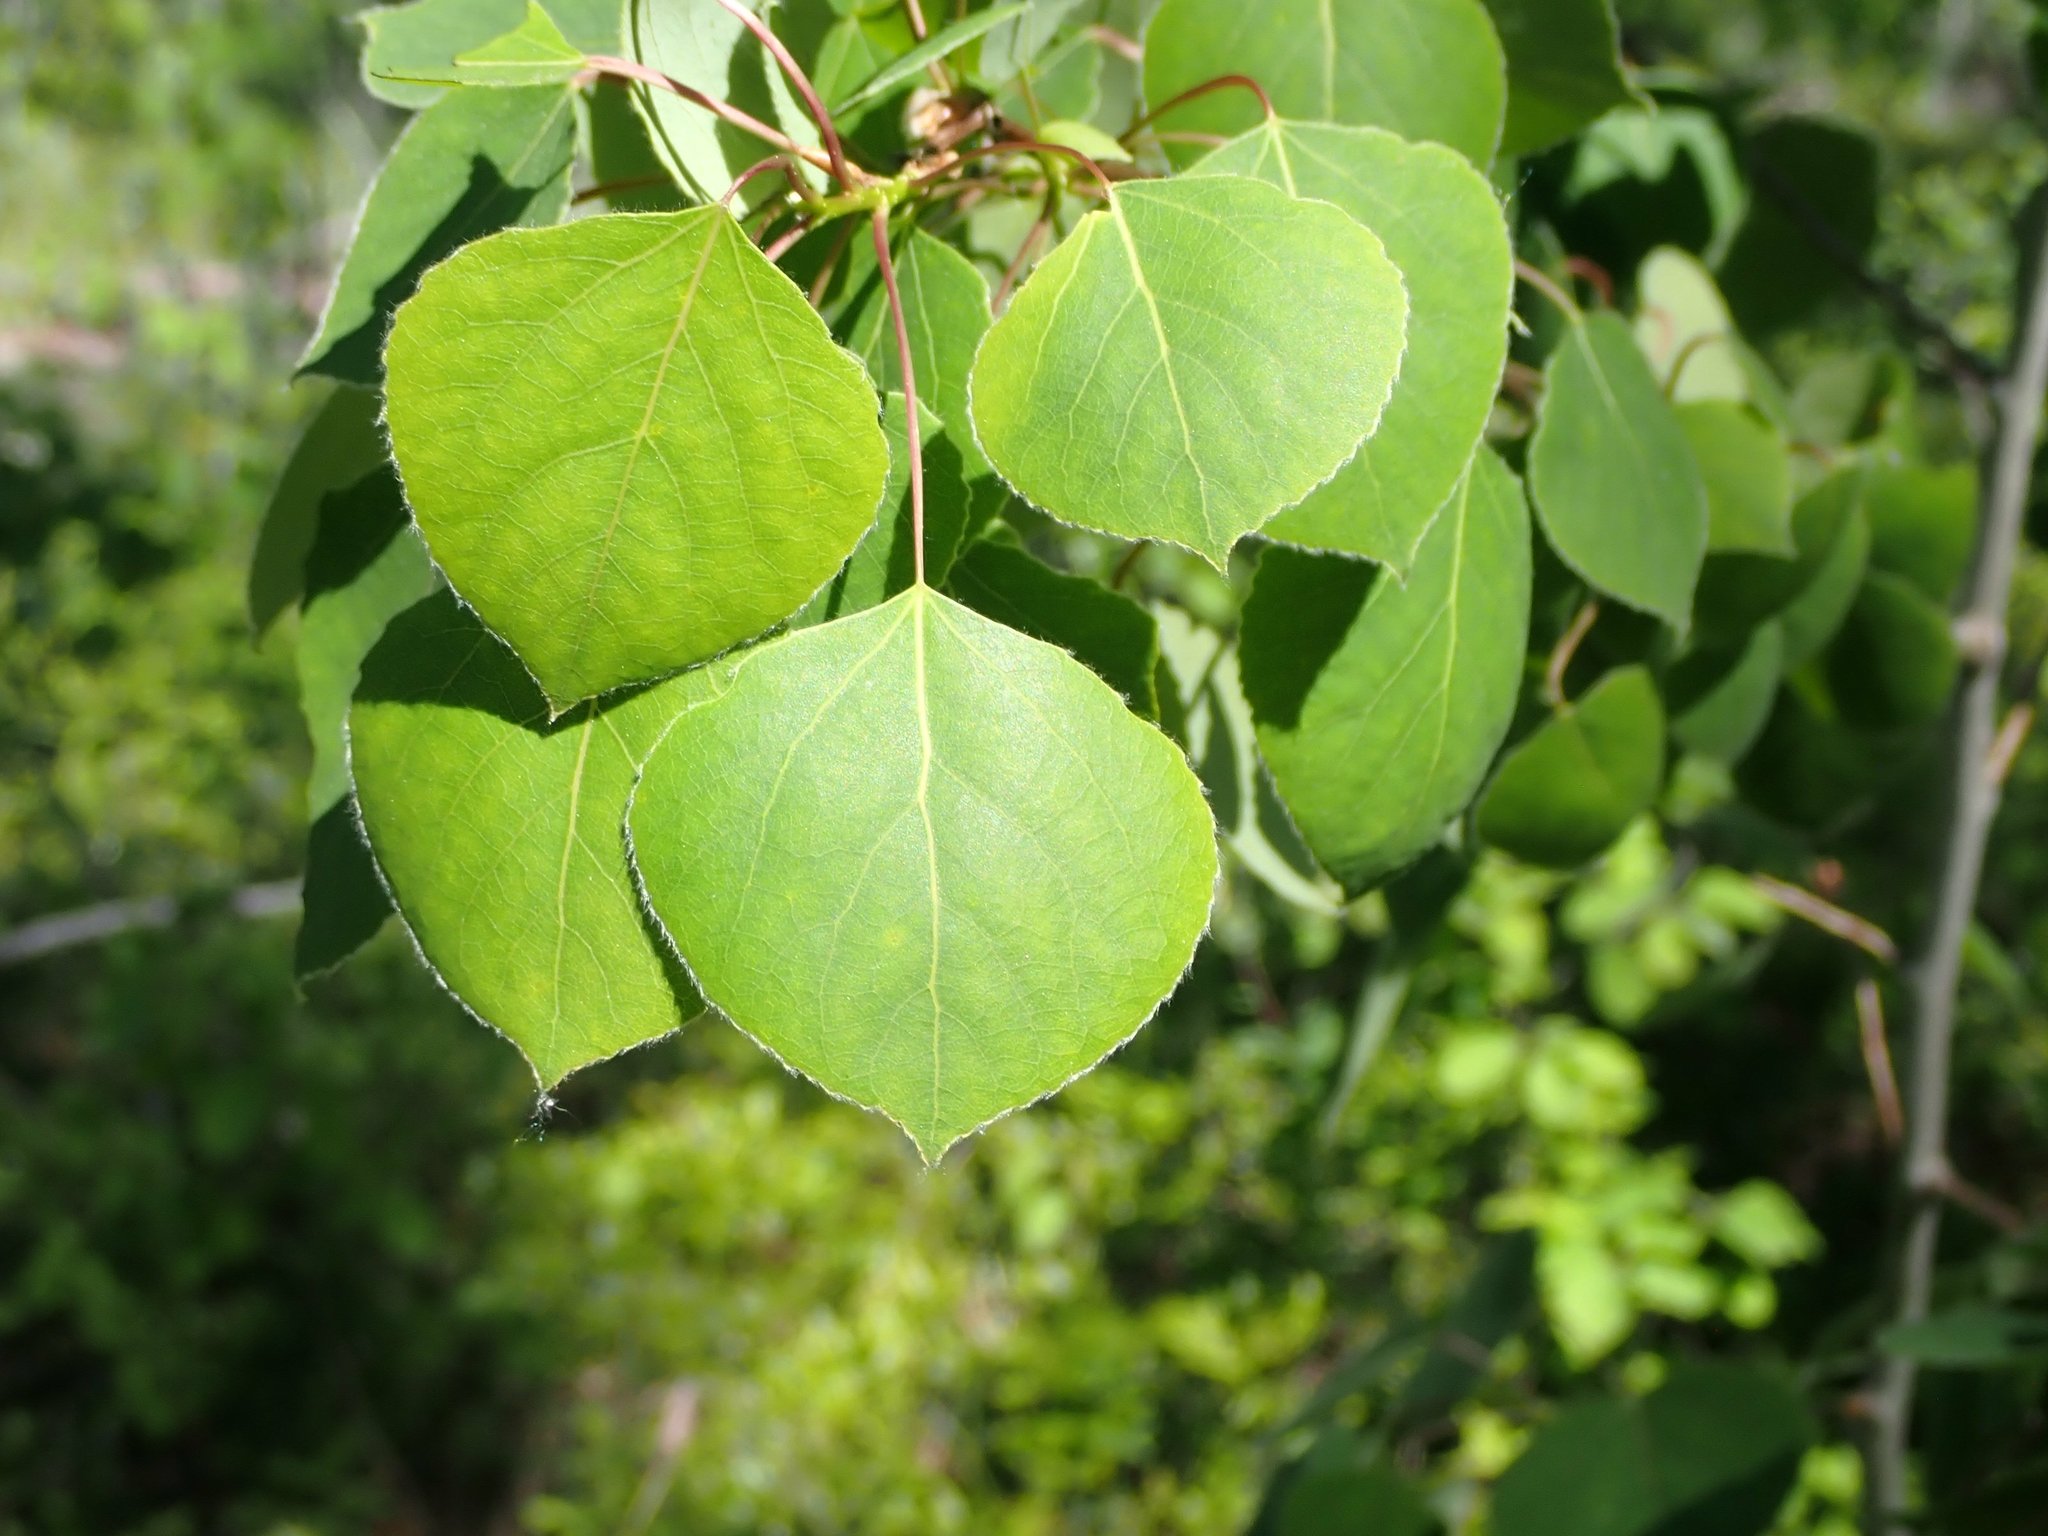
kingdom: Plantae
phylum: Tracheophyta
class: Magnoliopsida
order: Malpighiales
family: Salicaceae
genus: Populus
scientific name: Populus tremuloides
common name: Quaking aspen
